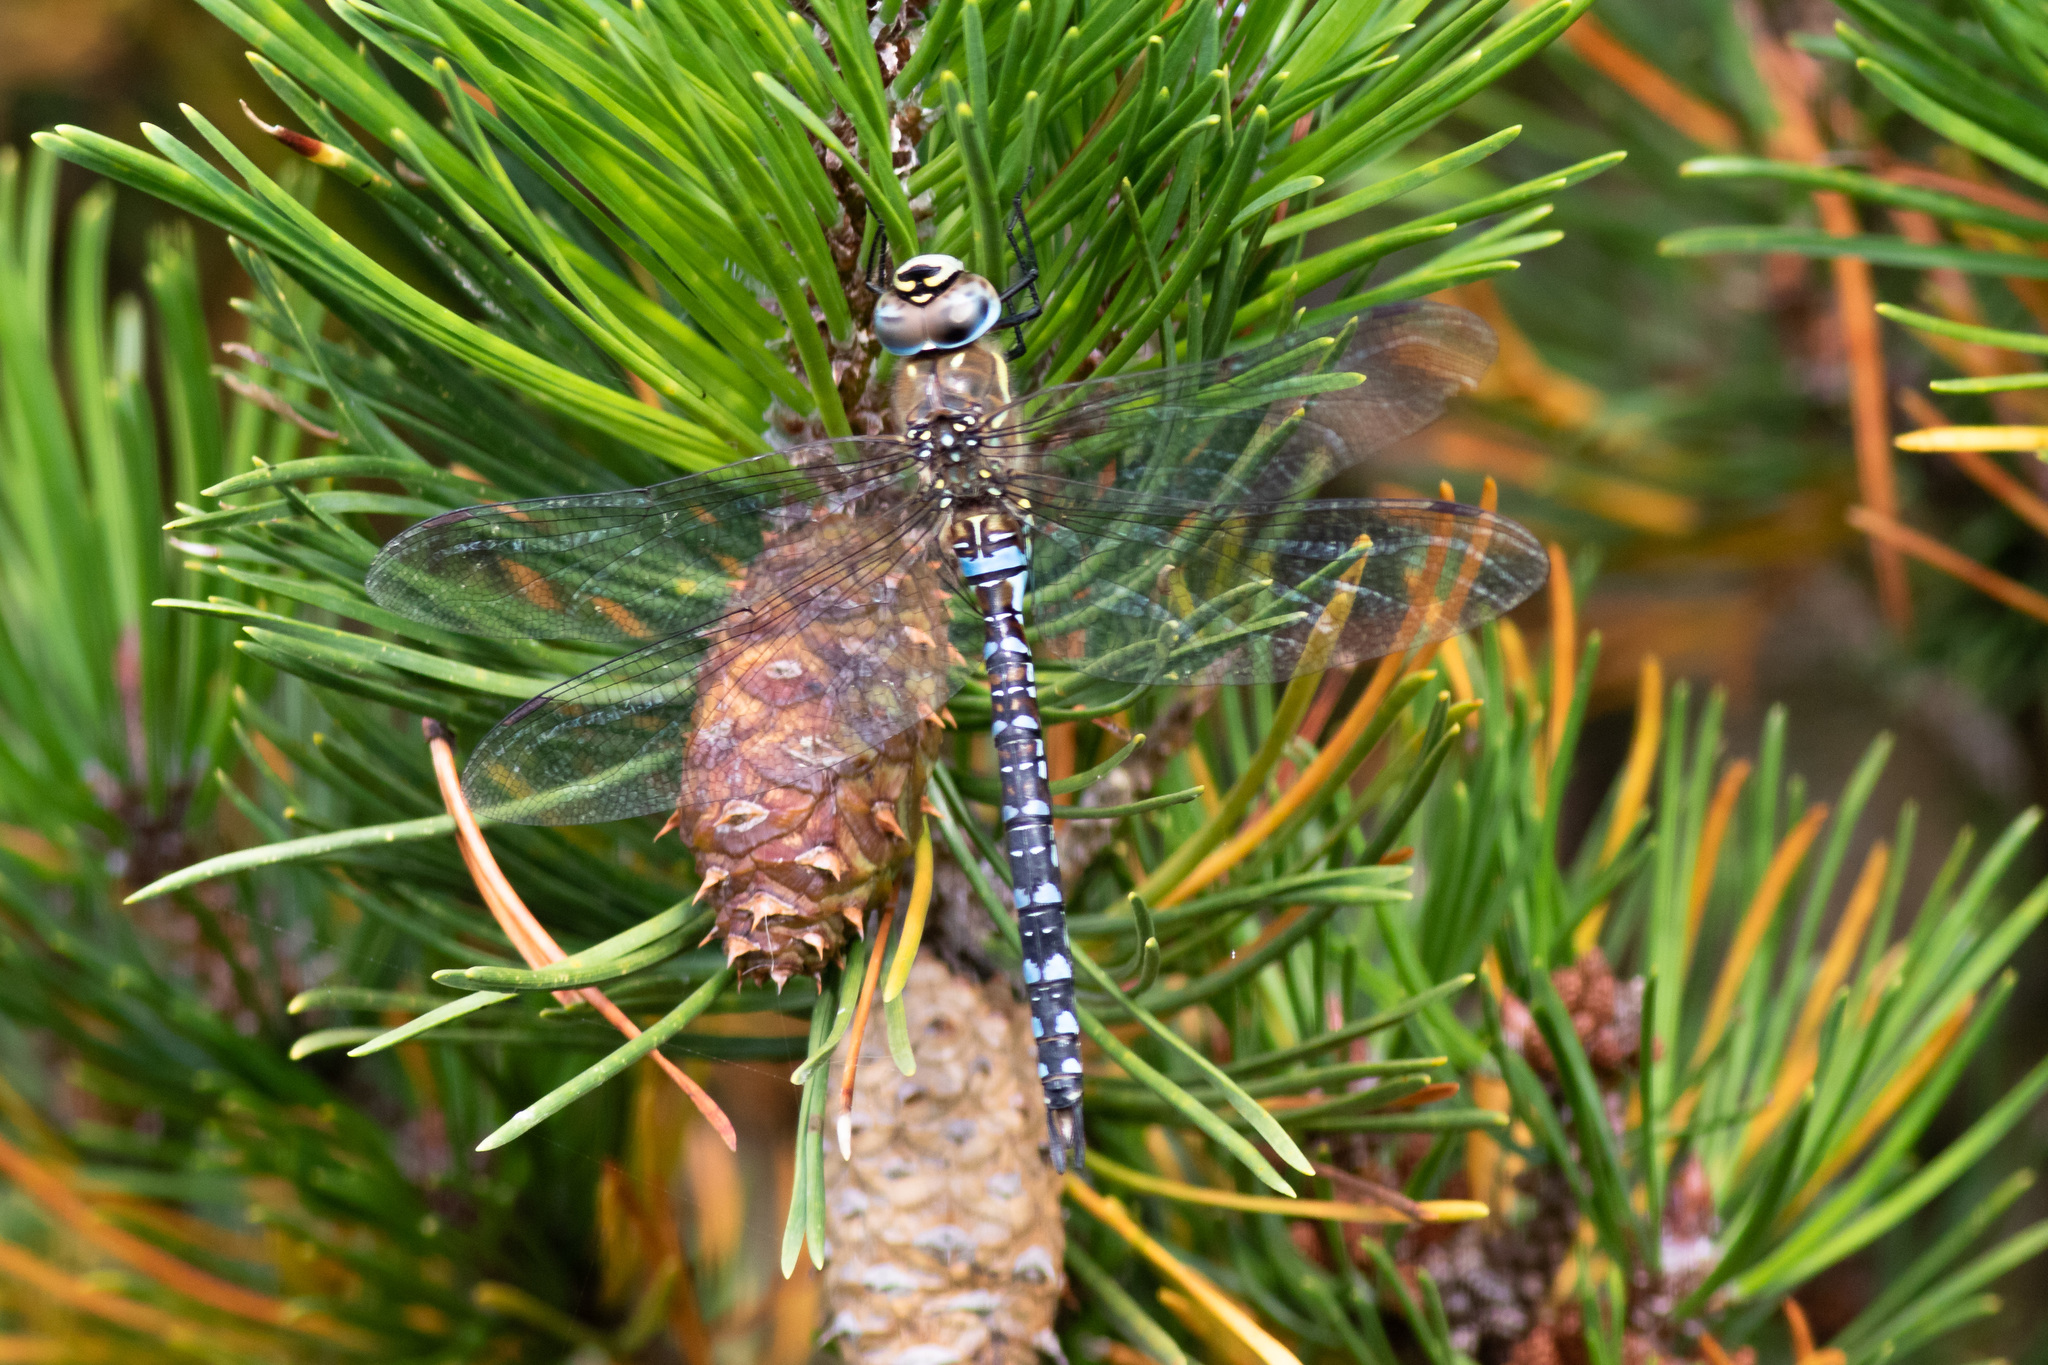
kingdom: Animalia
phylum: Arthropoda
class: Insecta
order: Odonata
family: Aeshnidae
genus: Aeshna
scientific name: Aeshna mixta
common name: Migrant hawker
